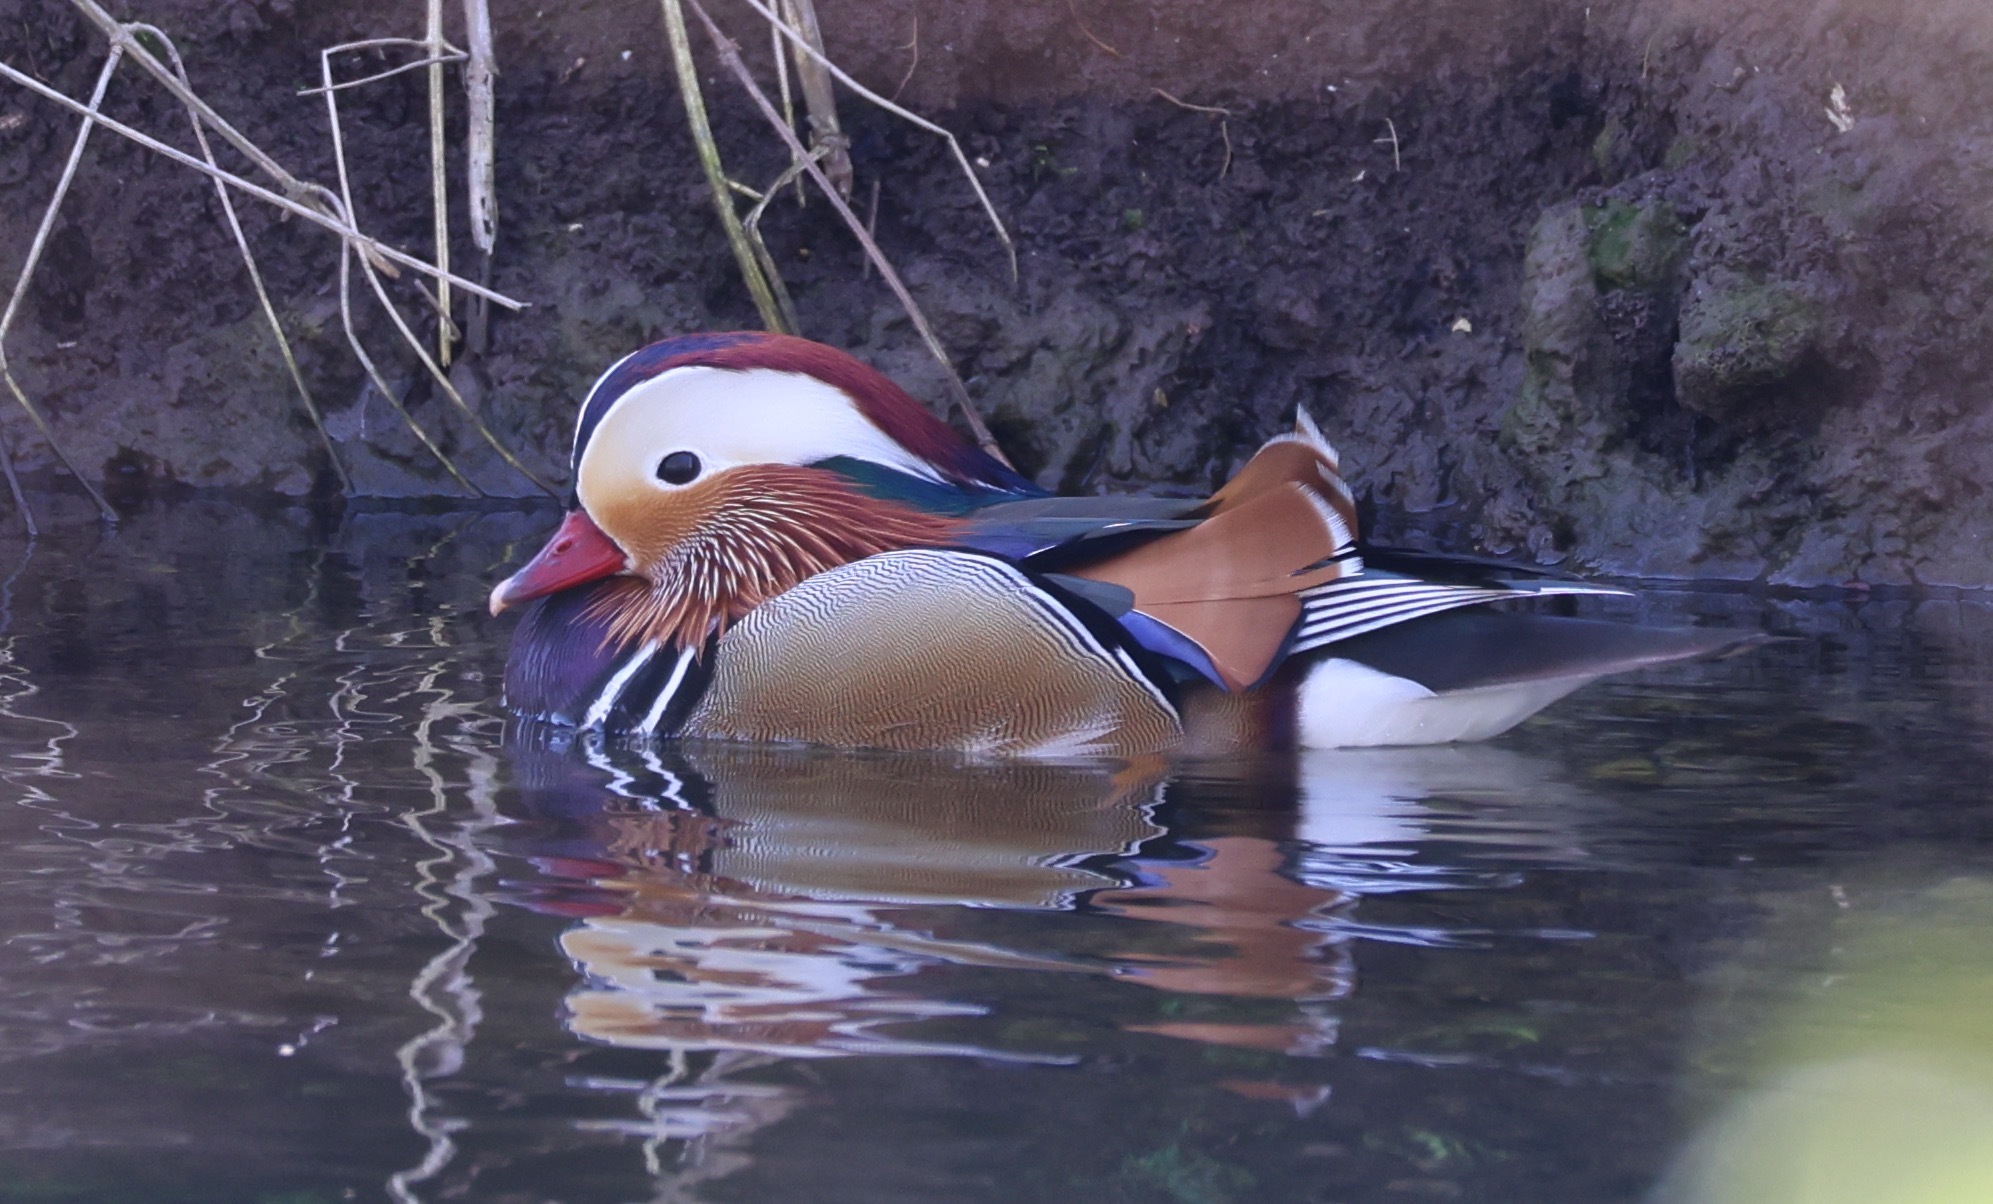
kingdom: Animalia
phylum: Chordata
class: Aves
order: Anseriformes
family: Anatidae
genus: Aix
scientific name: Aix galericulata
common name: Mandarin duck
